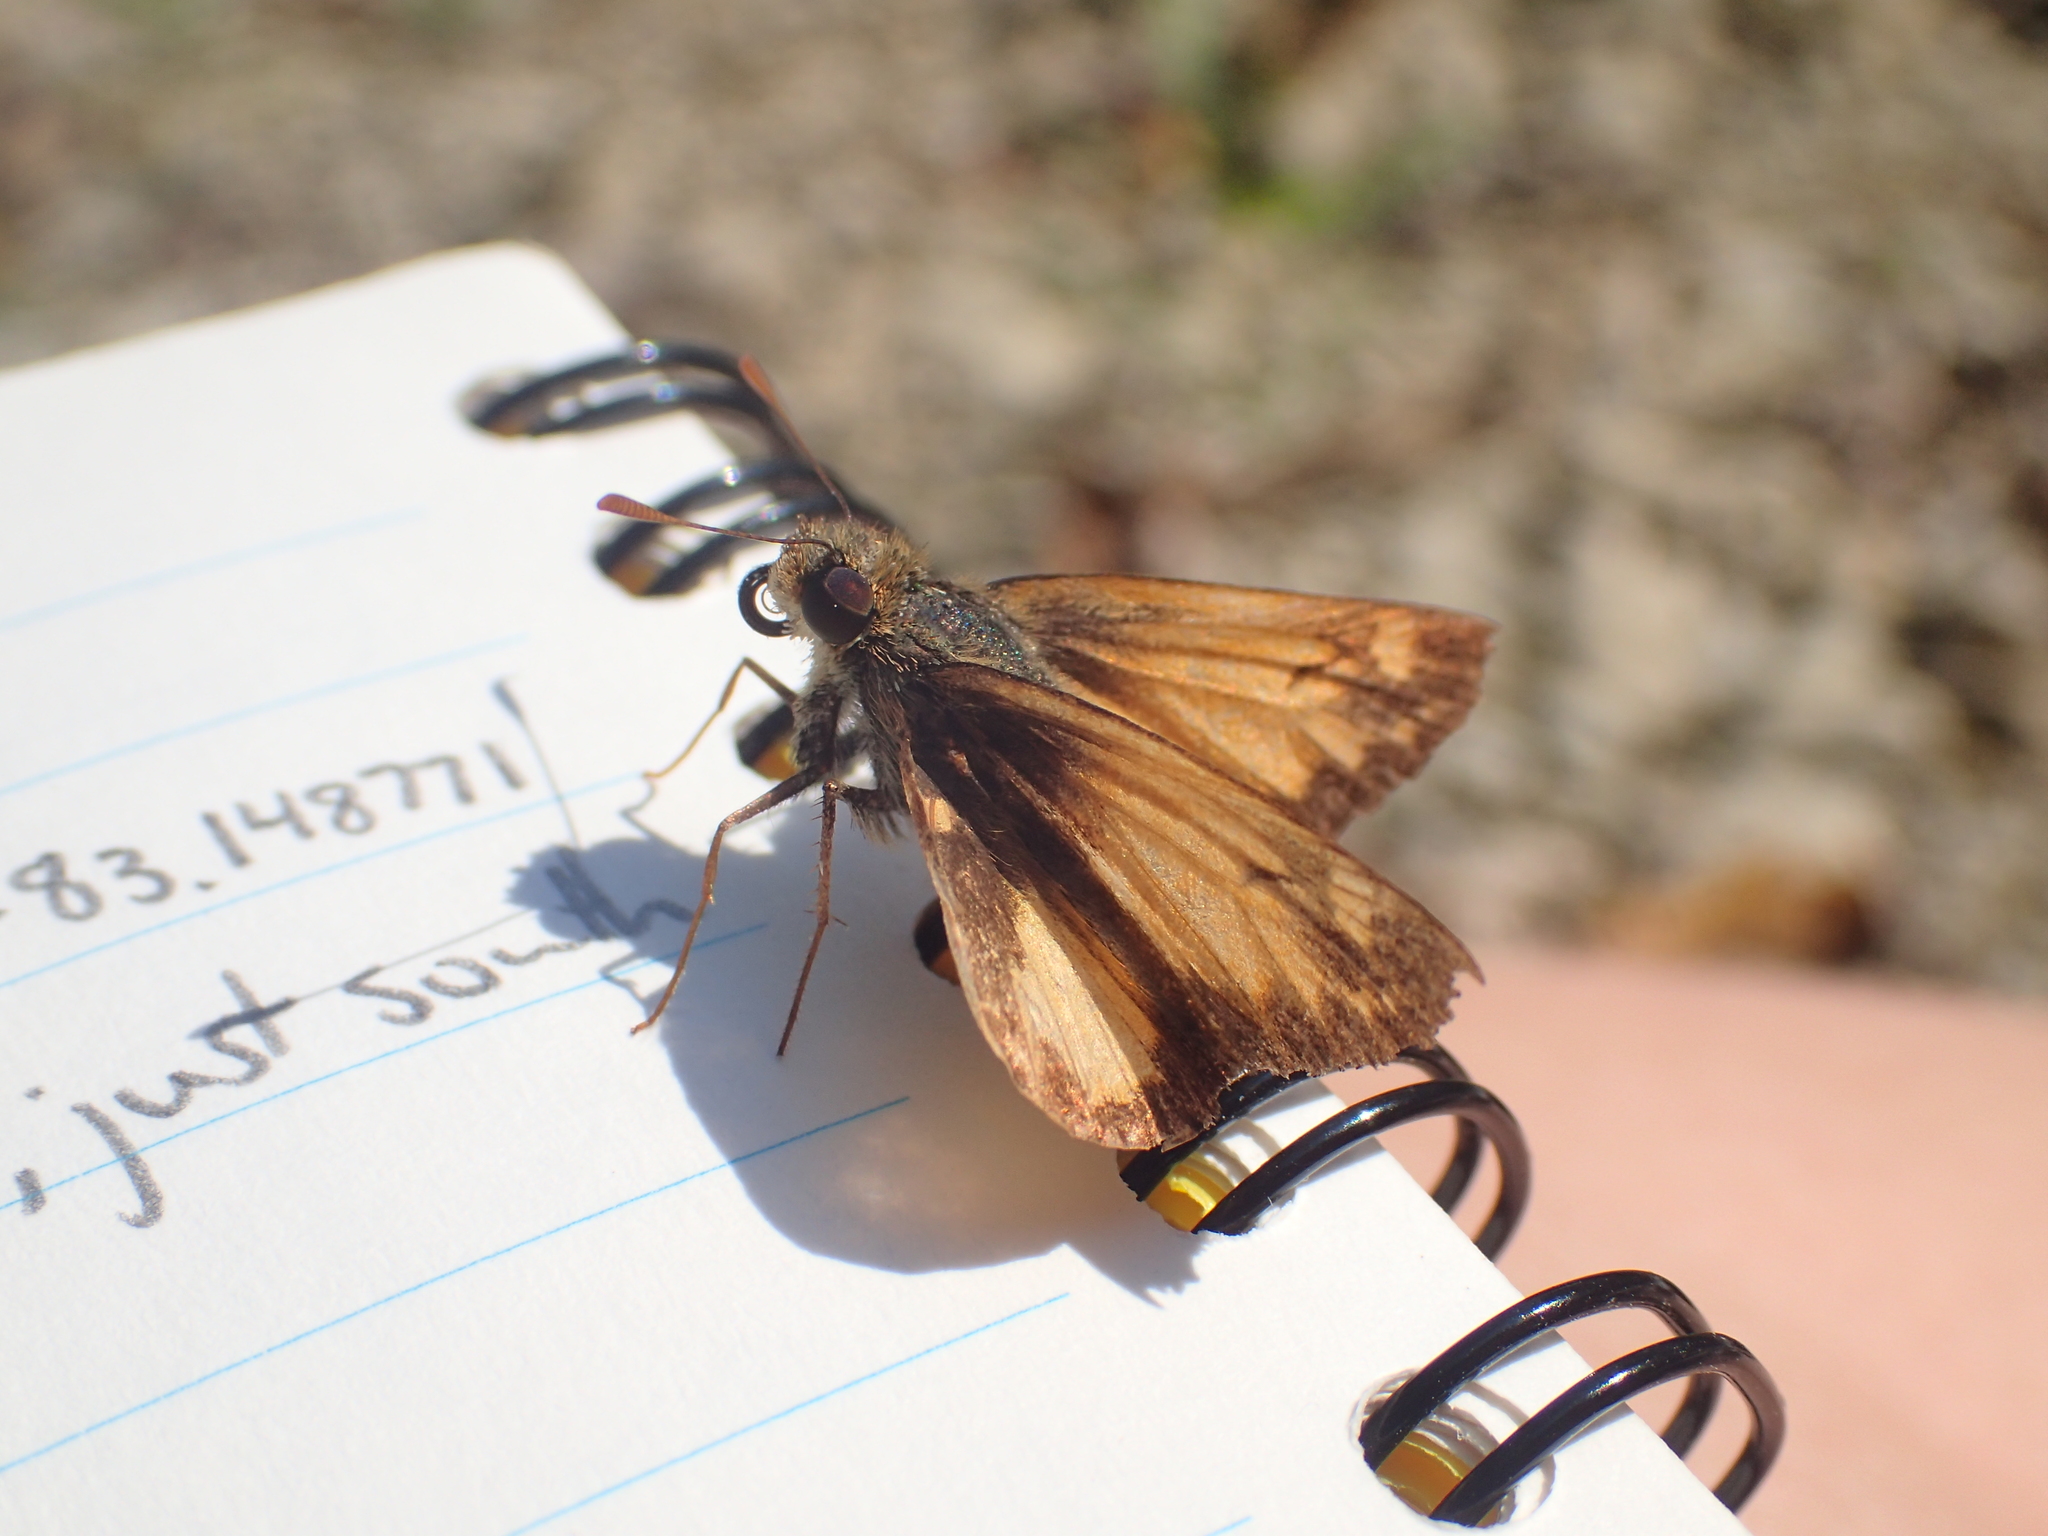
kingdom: Animalia
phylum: Arthropoda
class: Insecta
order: Lepidoptera
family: Hesperiidae
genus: Lon
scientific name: Lon zabulon
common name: Zabulon skipper
